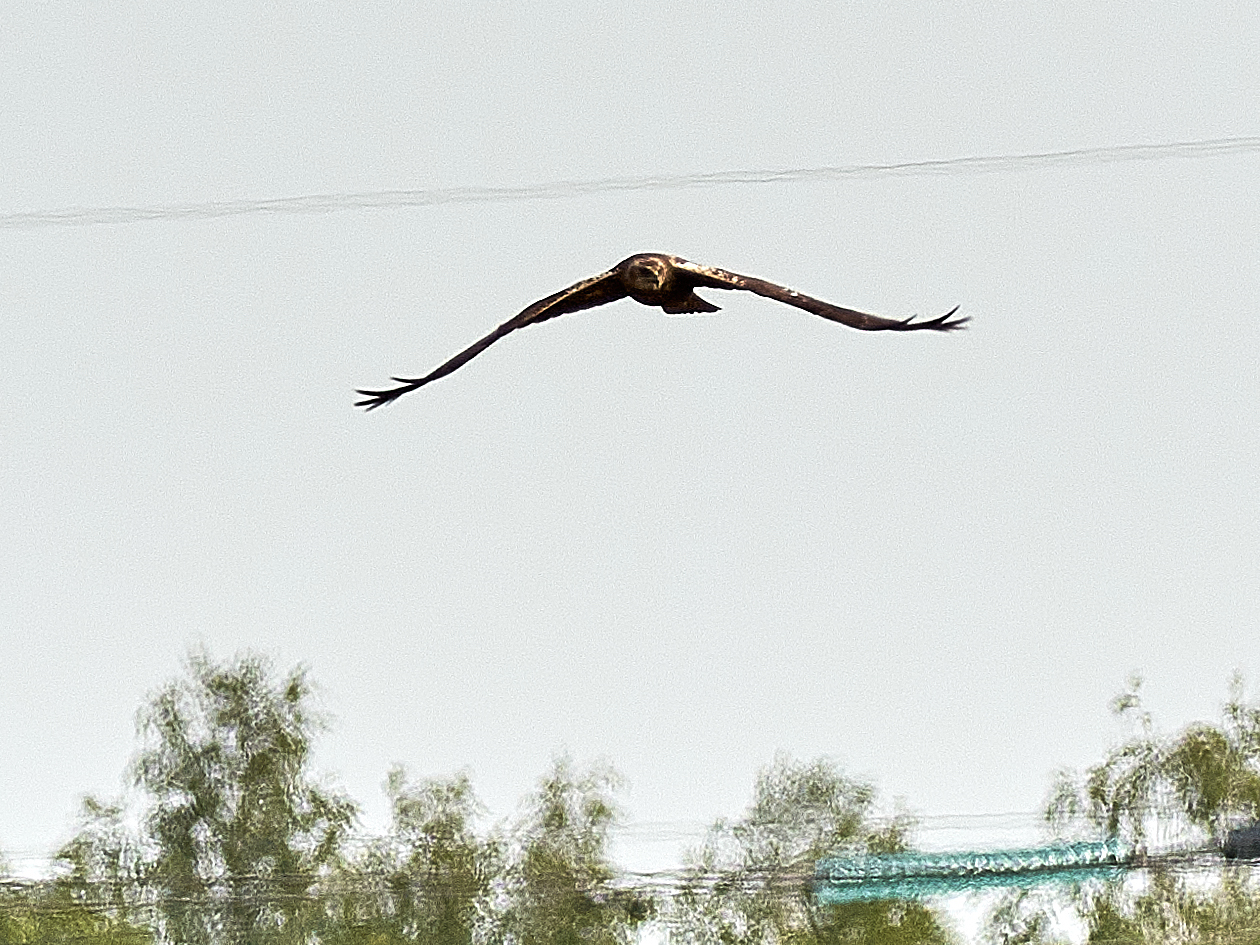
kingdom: Animalia
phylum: Chordata
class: Aves
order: Accipitriformes
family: Accipitridae
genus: Circus
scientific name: Circus aeruginosus
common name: Western marsh harrier
